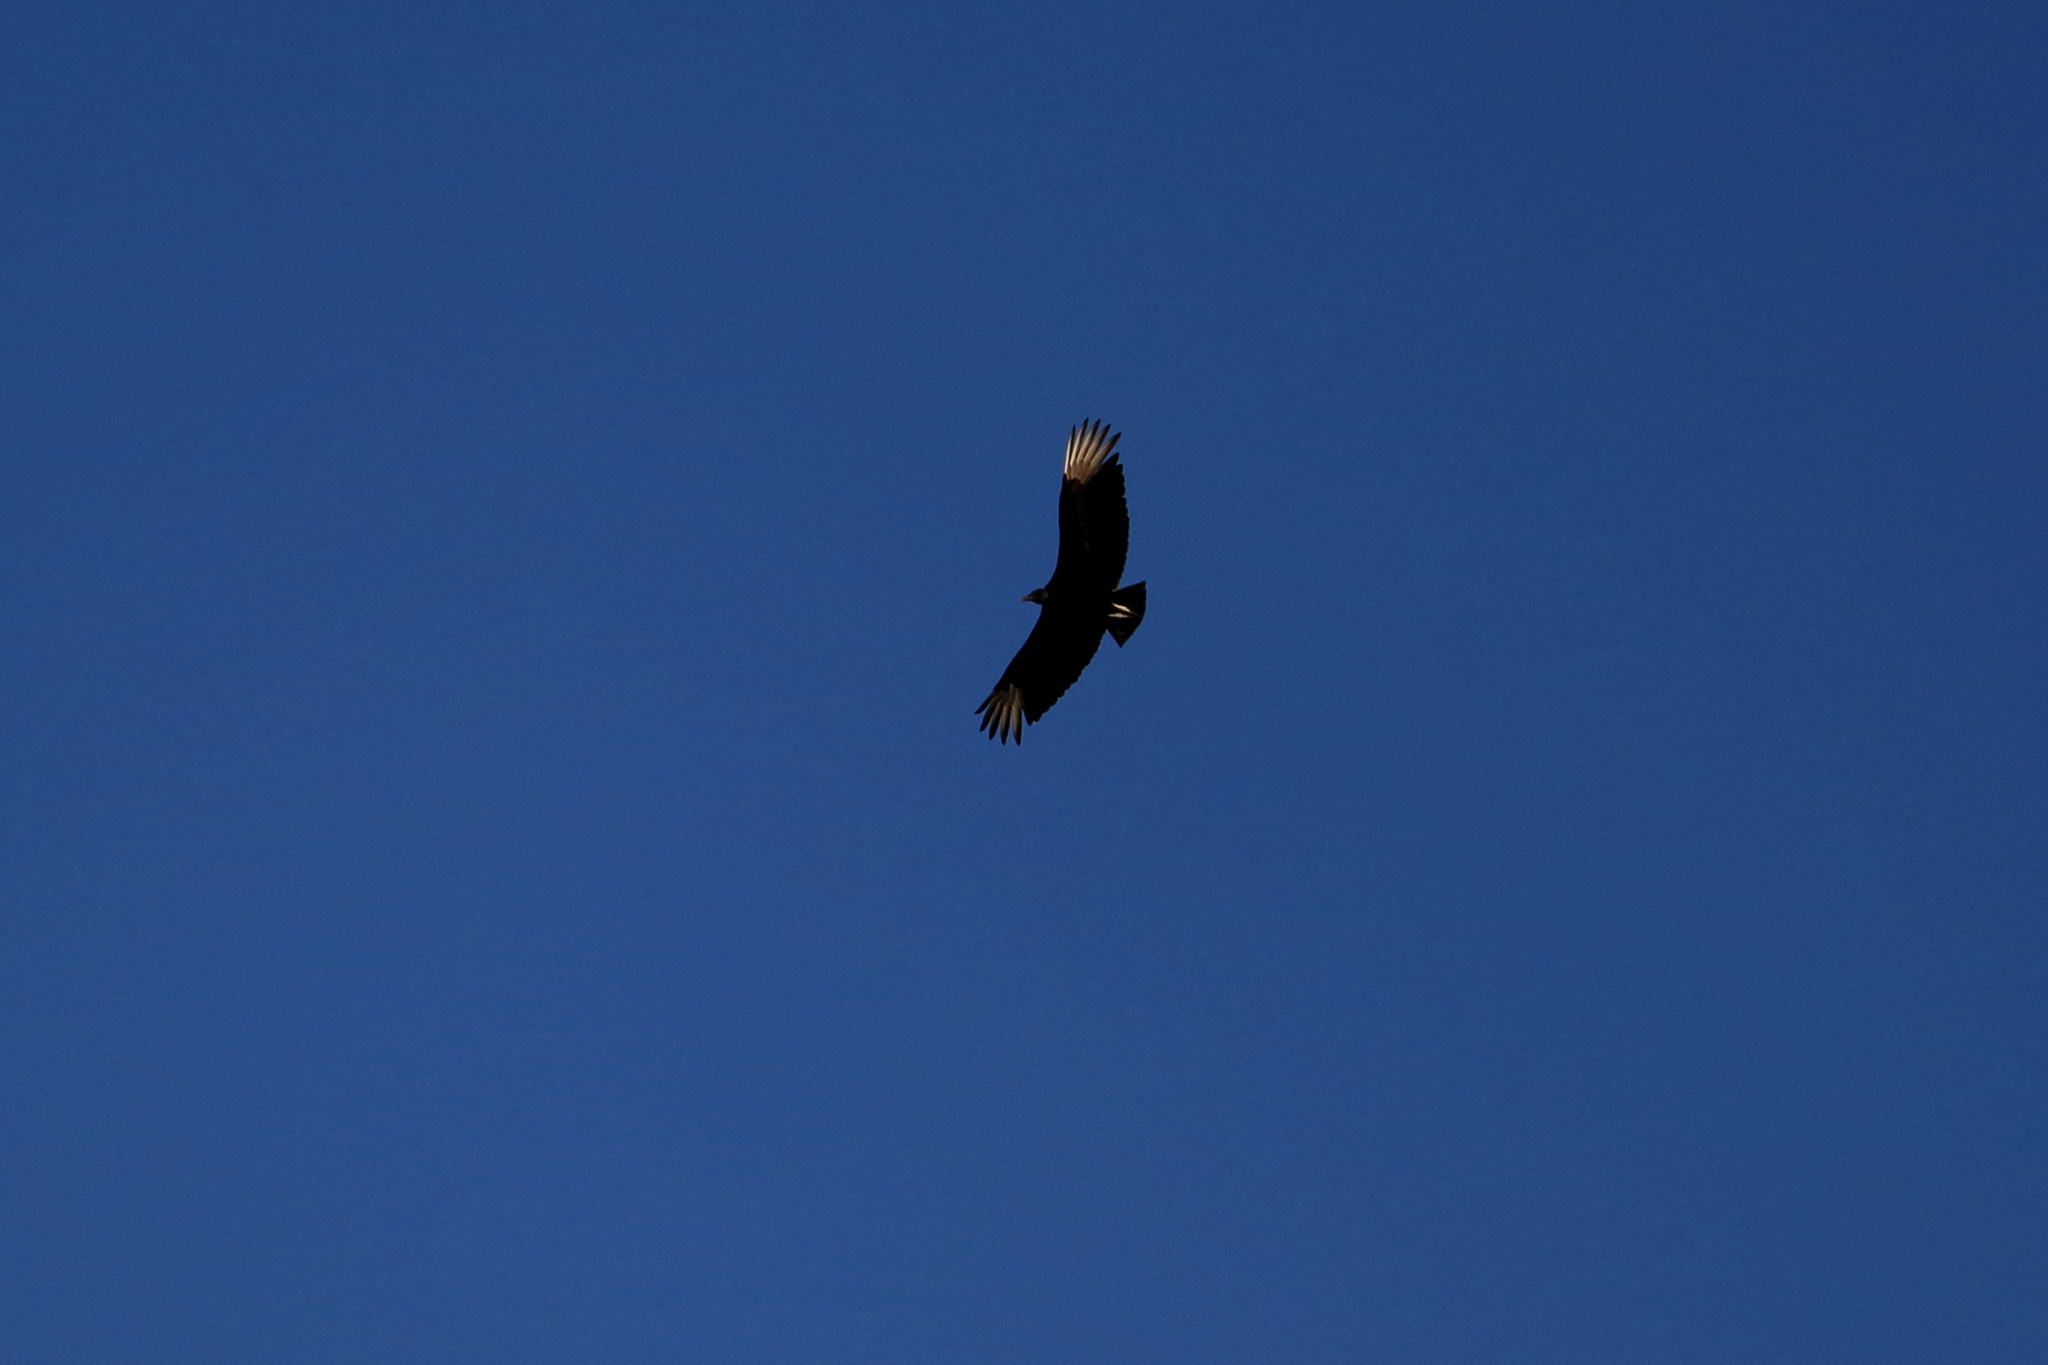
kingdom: Animalia
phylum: Chordata
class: Aves
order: Accipitriformes
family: Cathartidae
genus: Coragyps
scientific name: Coragyps atratus
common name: Black vulture
